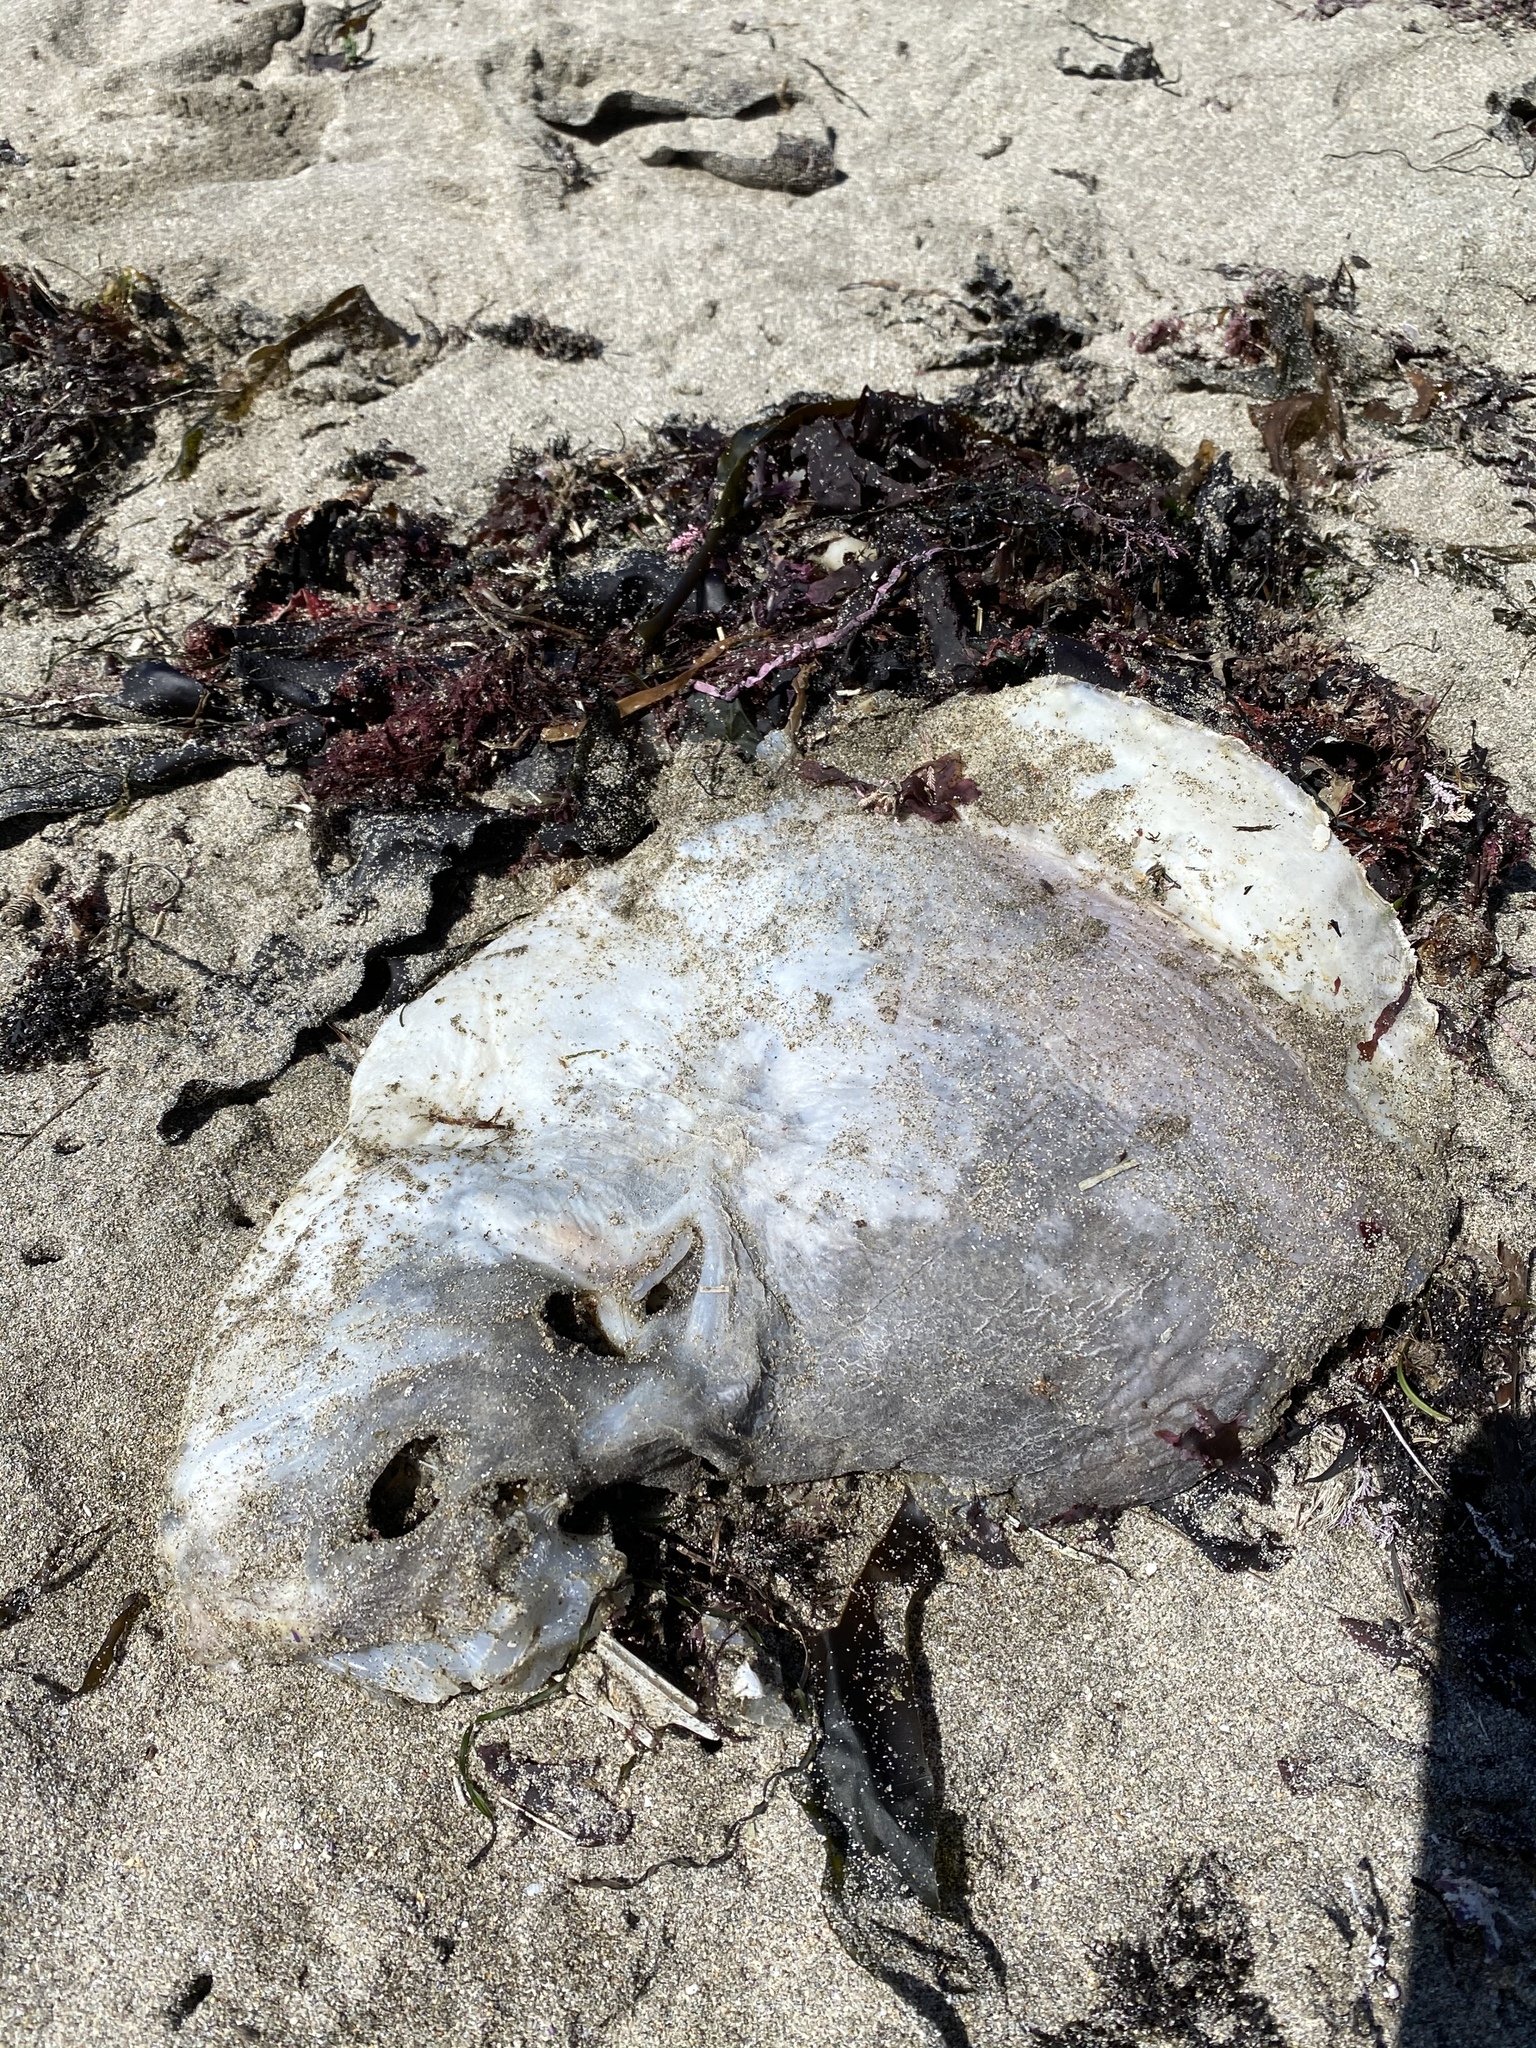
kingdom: Animalia
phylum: Chordata
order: Tetraodontiformes
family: Molidae
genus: Mola
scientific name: Mola mola
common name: Ocean sunfish
